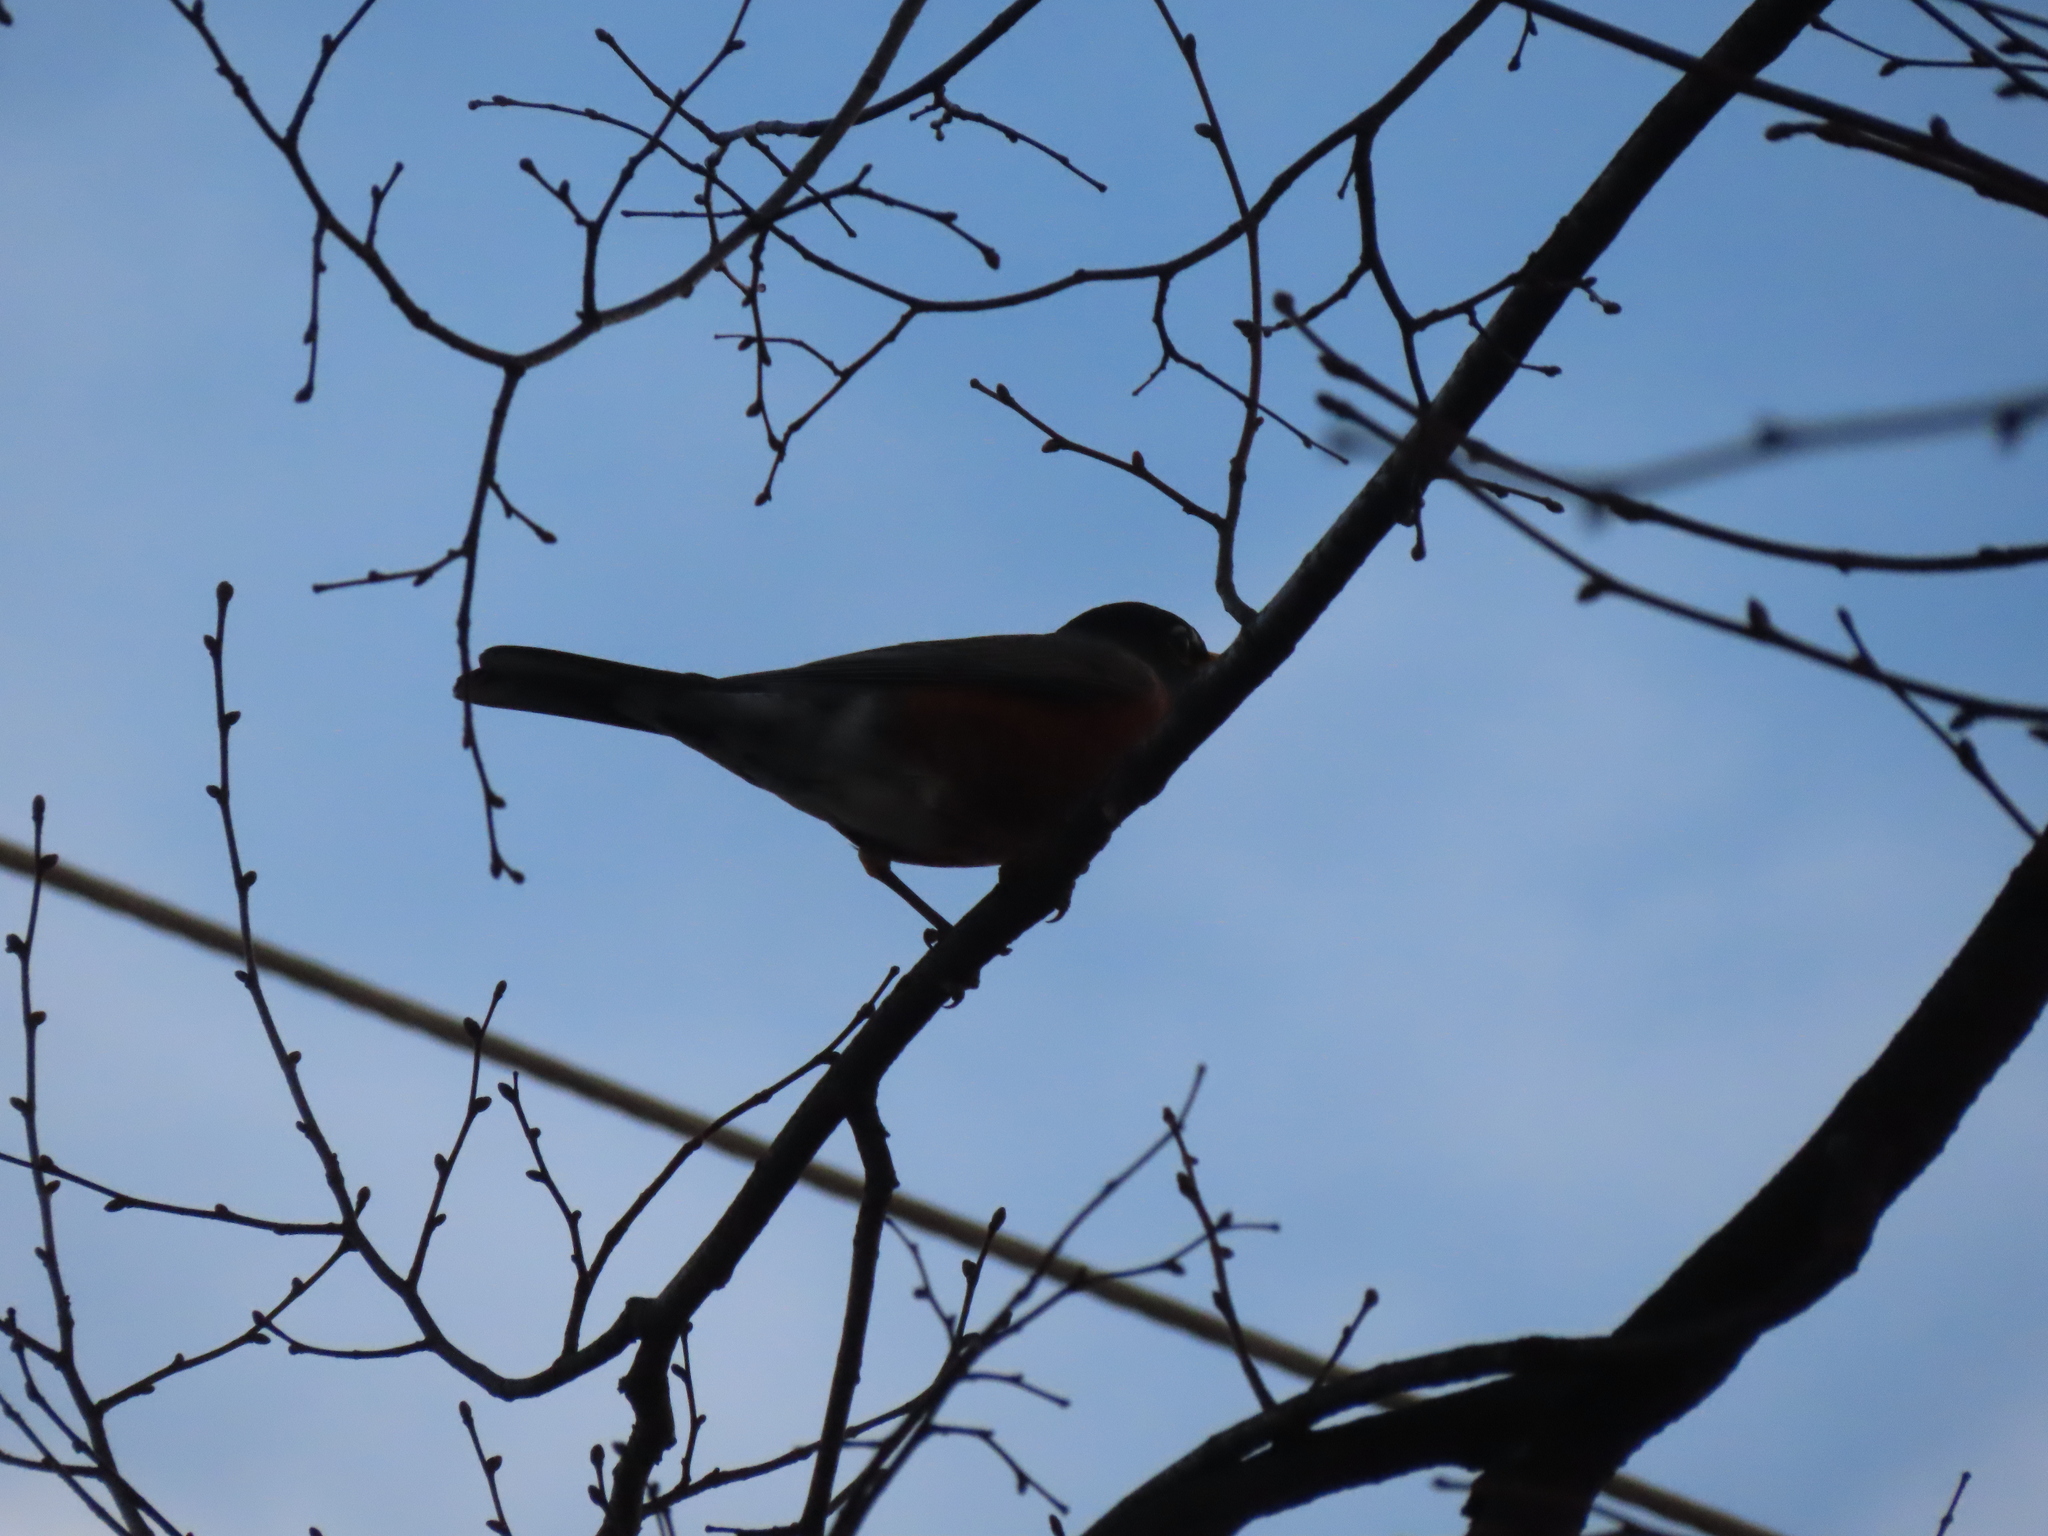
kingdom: Animalia
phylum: Chordata
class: Aves
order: Passeriformes
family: Turdidae
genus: Turdus
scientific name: Turdus migratorius
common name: American robin
